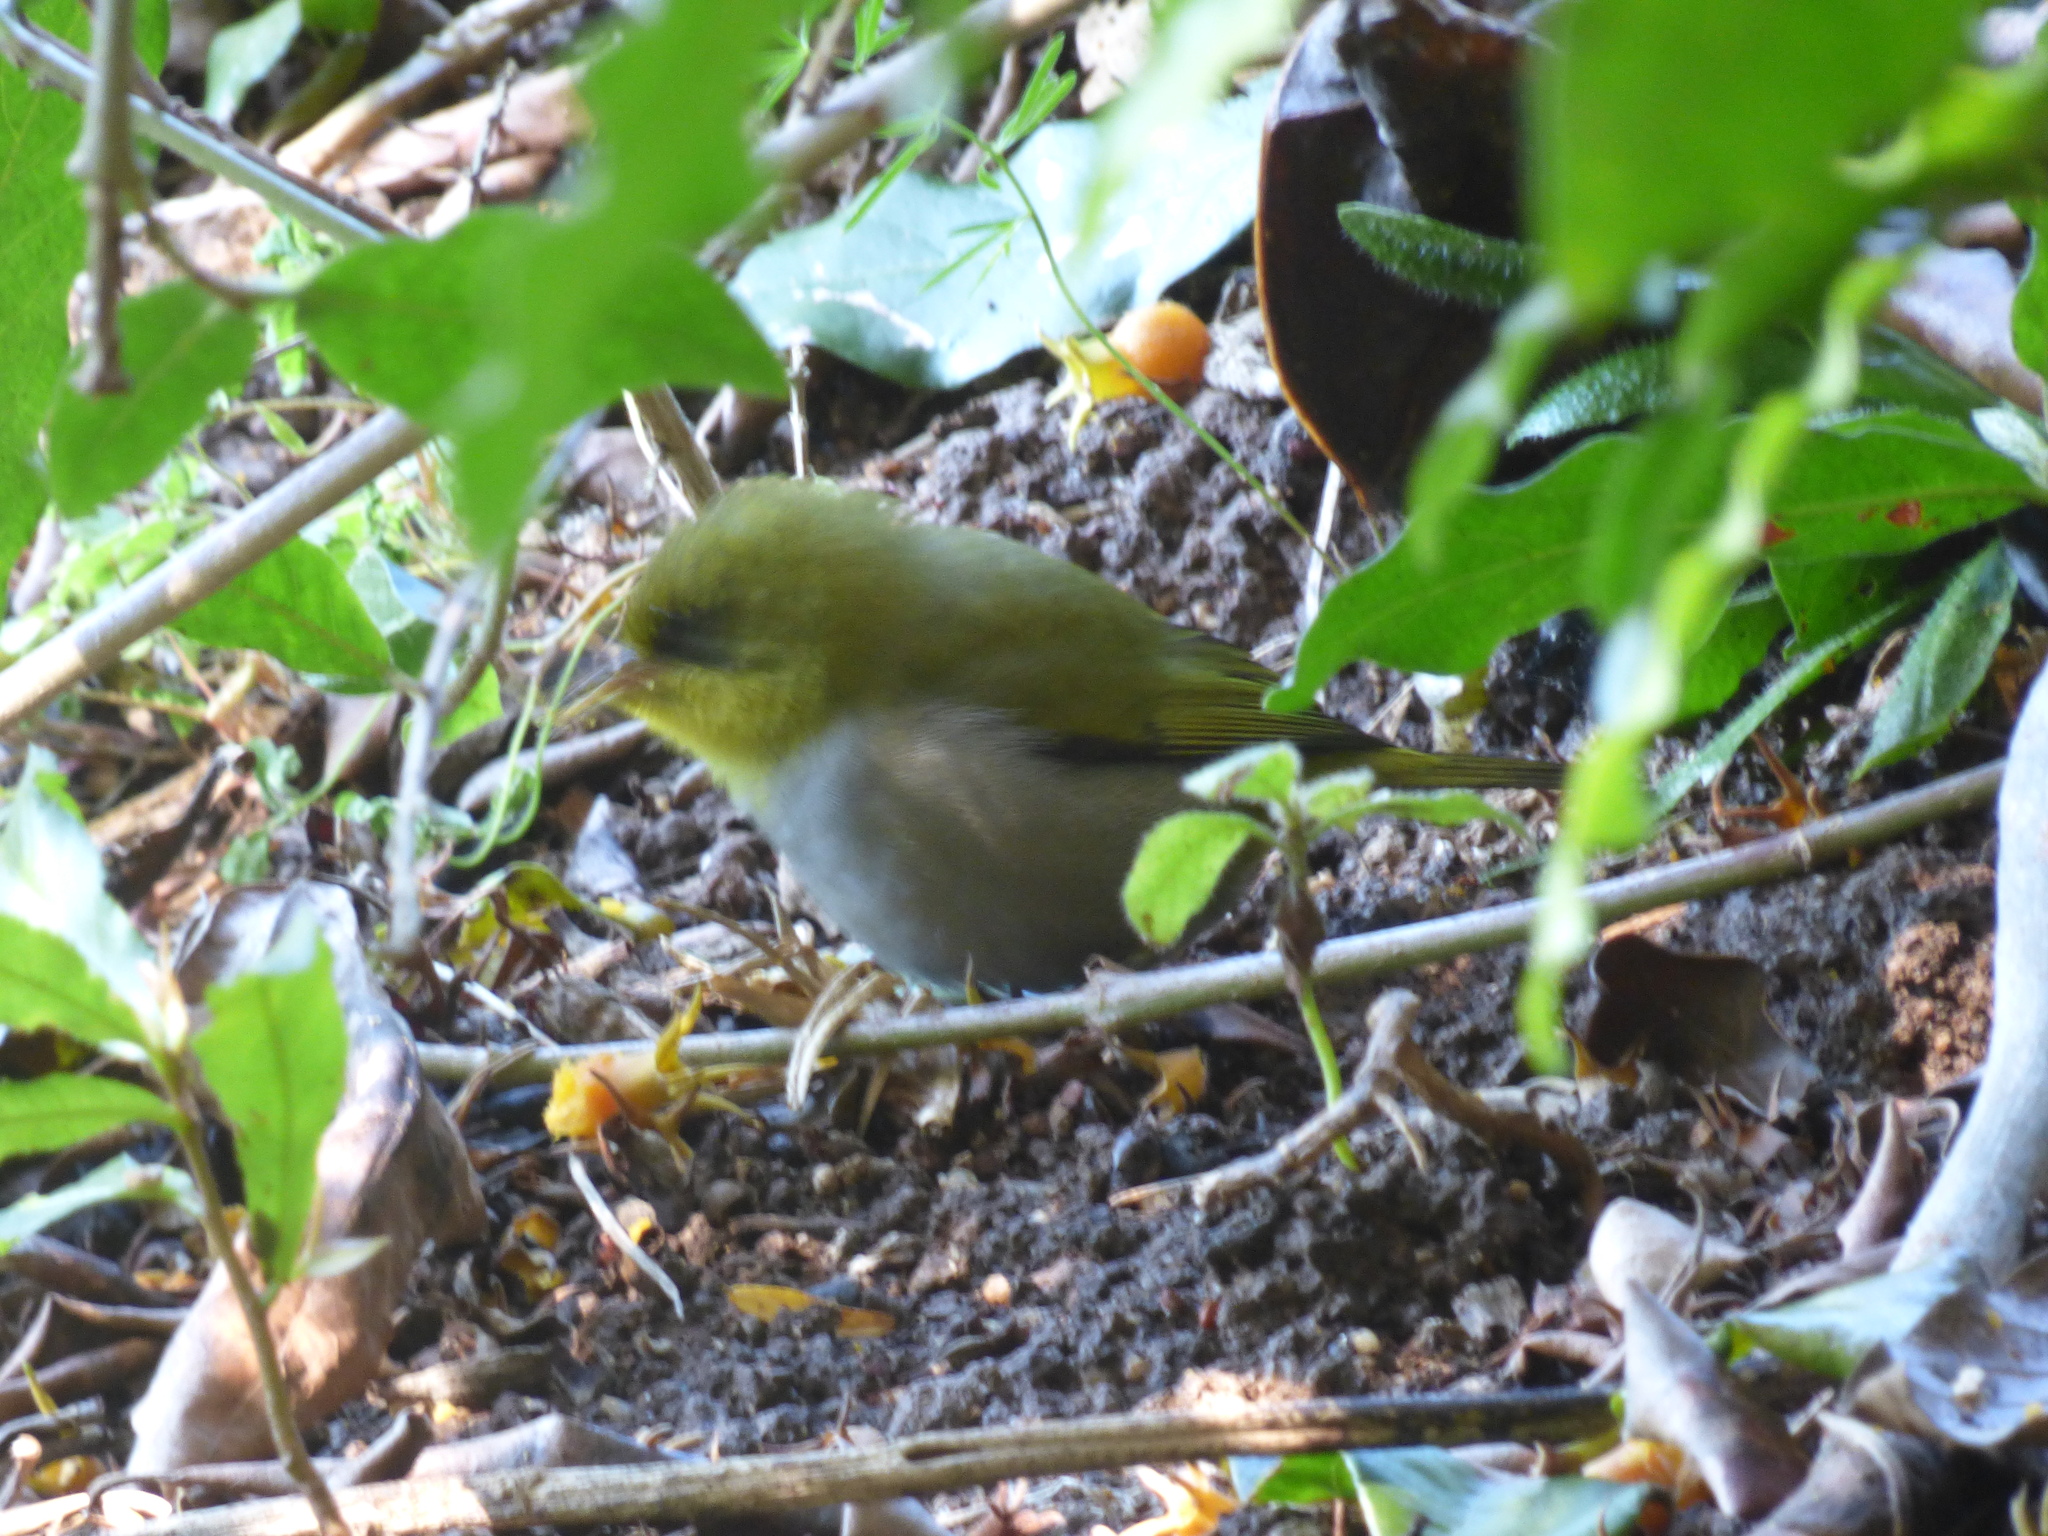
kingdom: Animalia
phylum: Chordata
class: Aves
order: Passeriformes
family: Zosteropidae
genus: Zosterops
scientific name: Zosterops virens
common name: Cape white-eye
